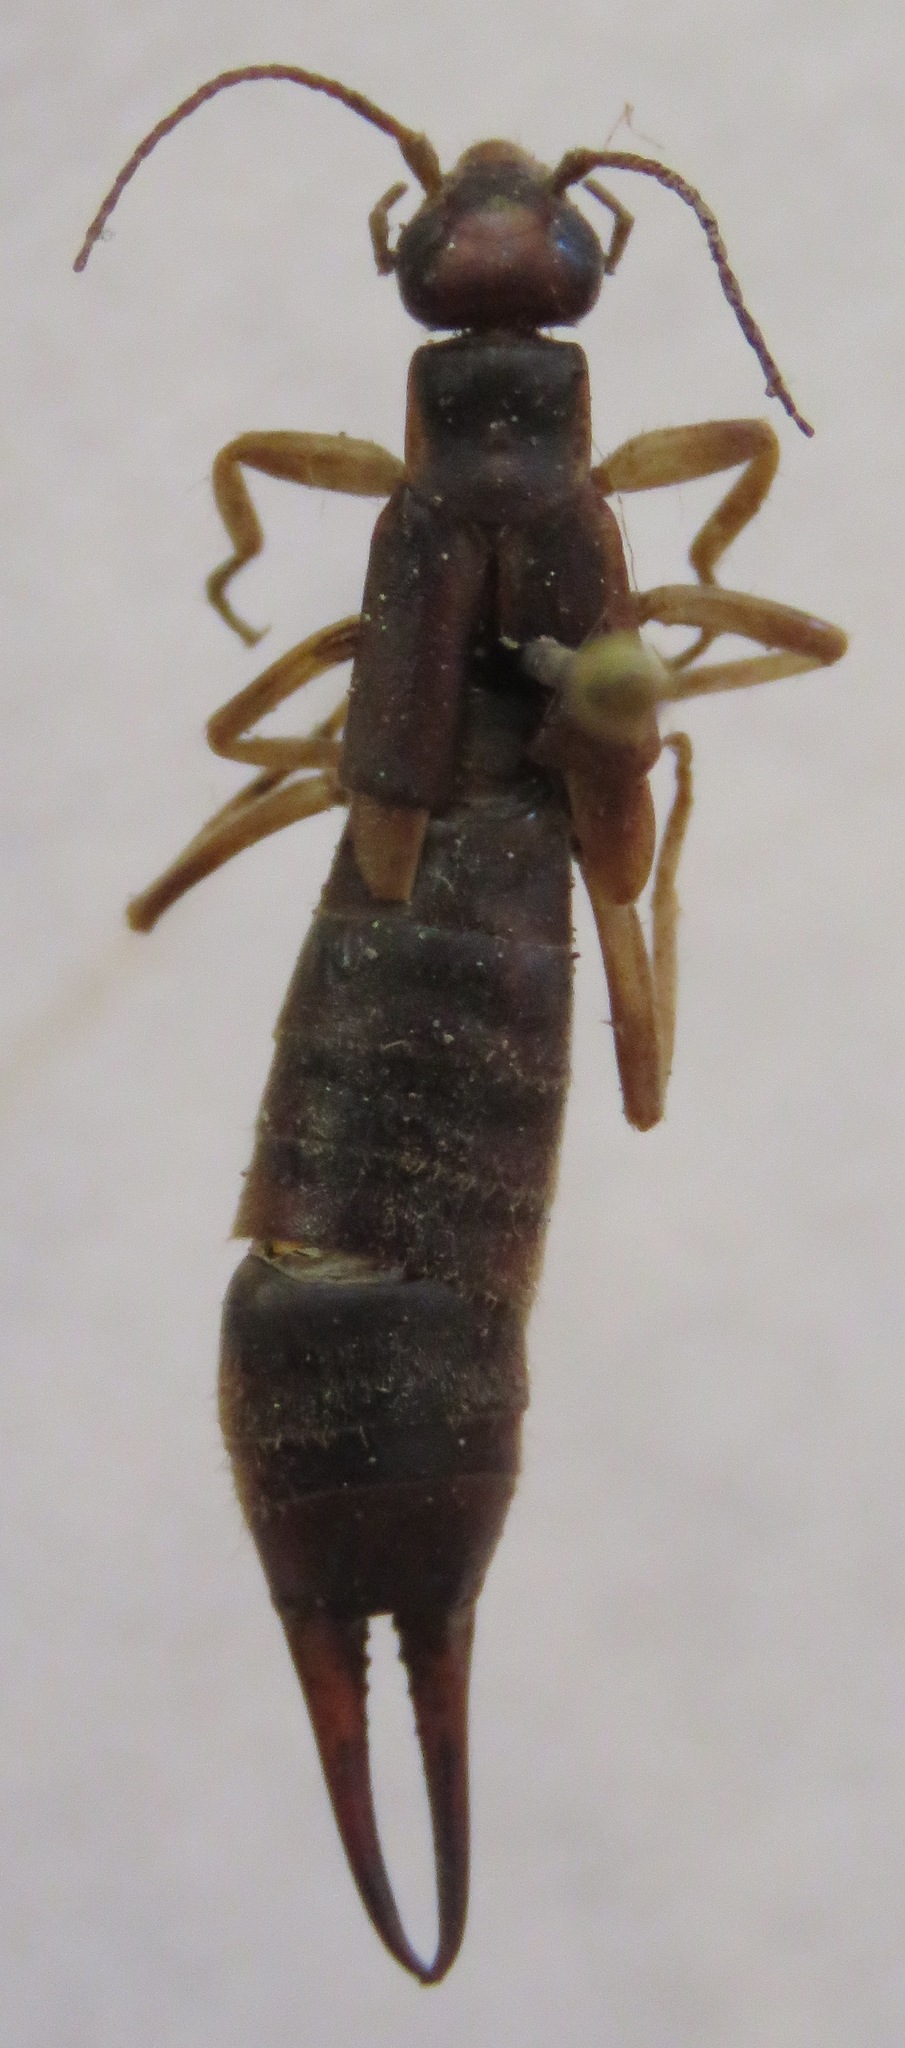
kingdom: Animalia
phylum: Arthropoda
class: Insecta
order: Dermaptera
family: Labiduridae
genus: Labidura
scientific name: Labidura riparia
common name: Striped earwig
